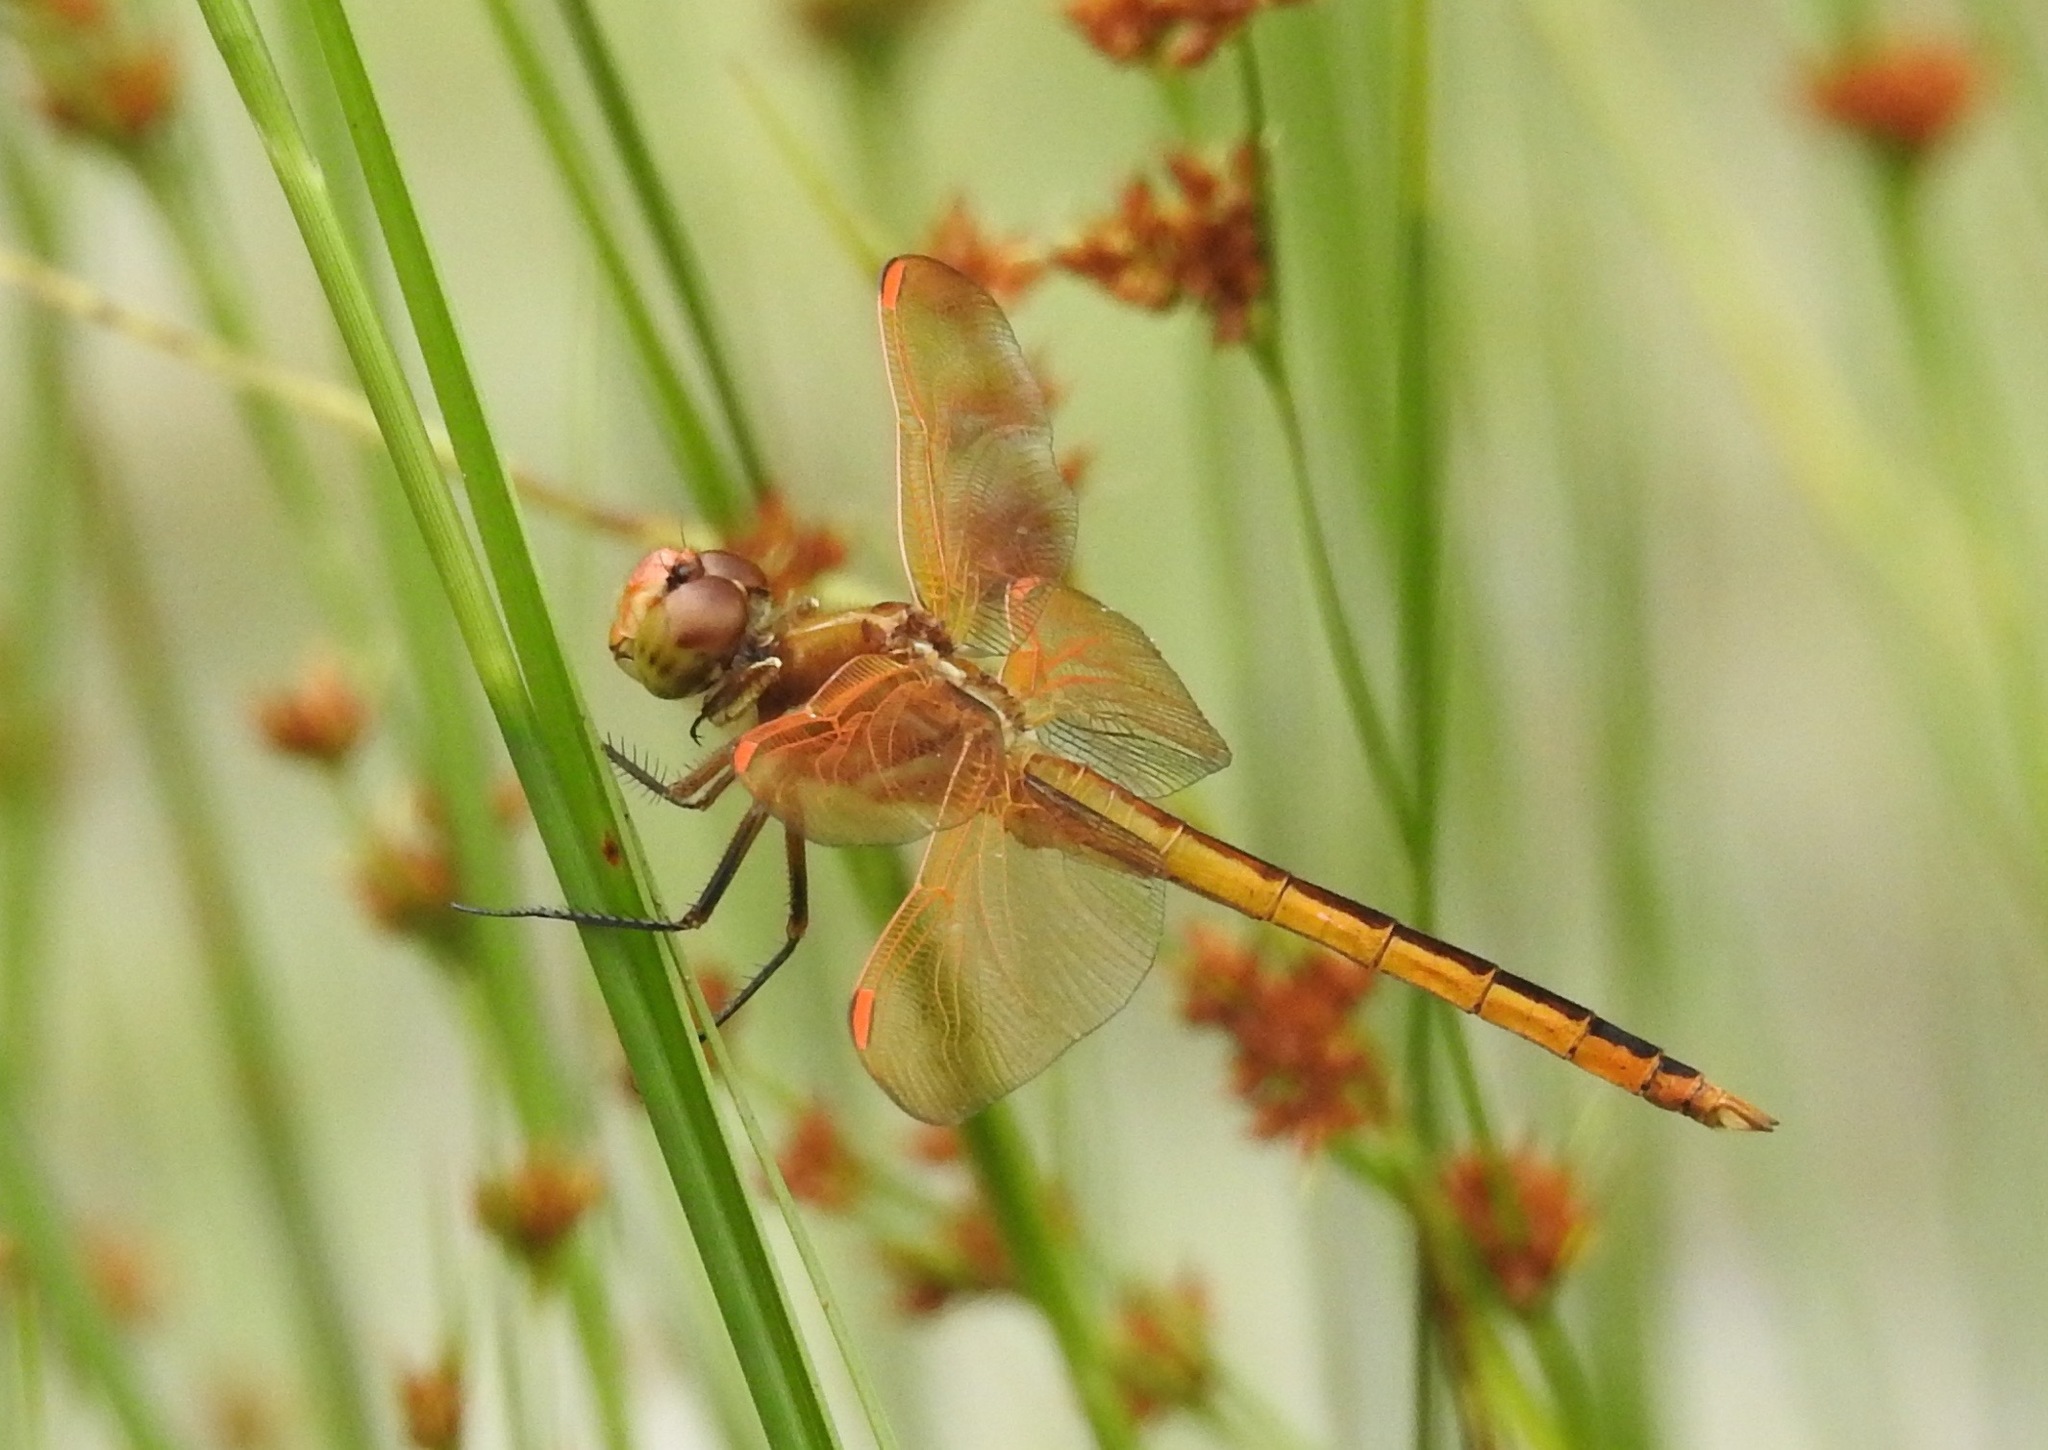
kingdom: Animalia
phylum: Arthropoda
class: Insecta
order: Odonata
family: Libellulidae
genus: Libellula
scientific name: Libellula auripennis
